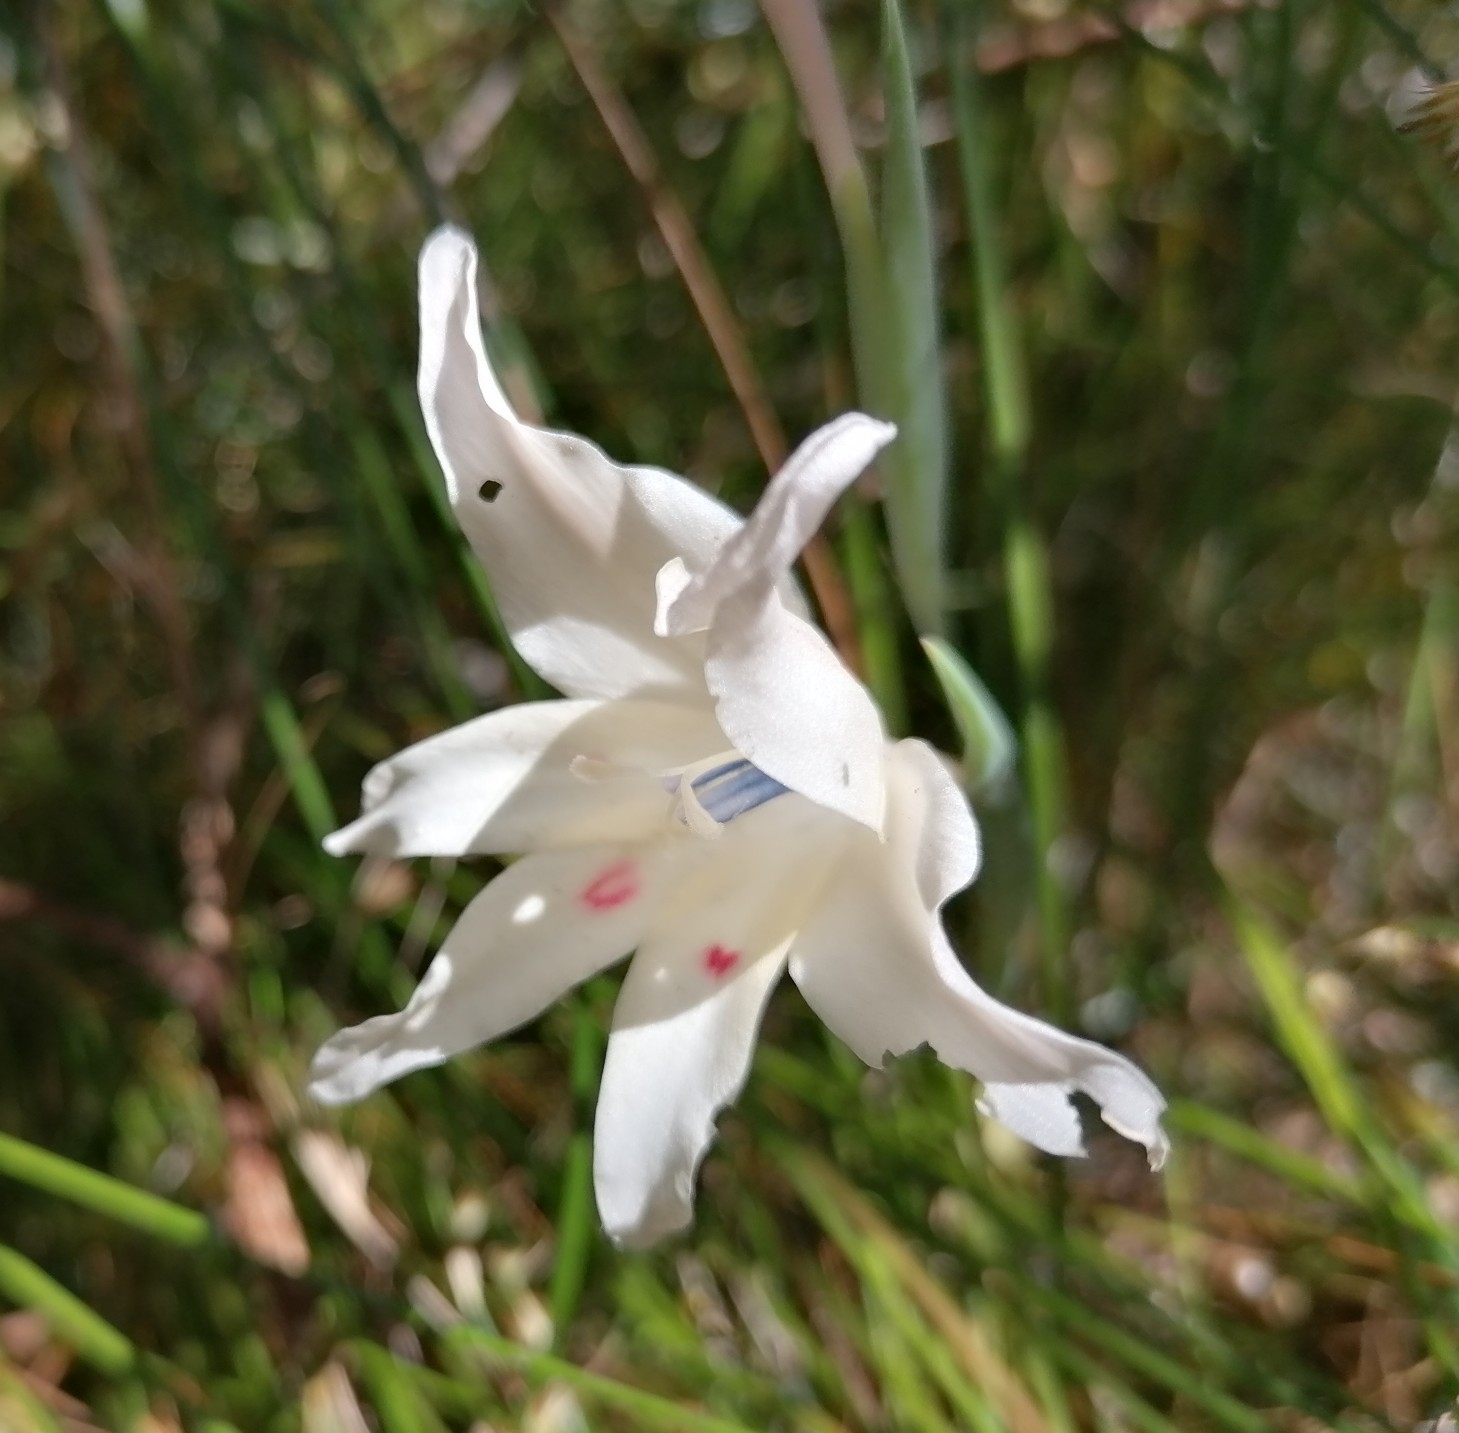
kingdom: Plantae
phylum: Tracheophyta
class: Liliopsida
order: Asparagales
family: Iridaceae
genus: Gladiolus
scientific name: Gladiolus carneus
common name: Painted-lady
